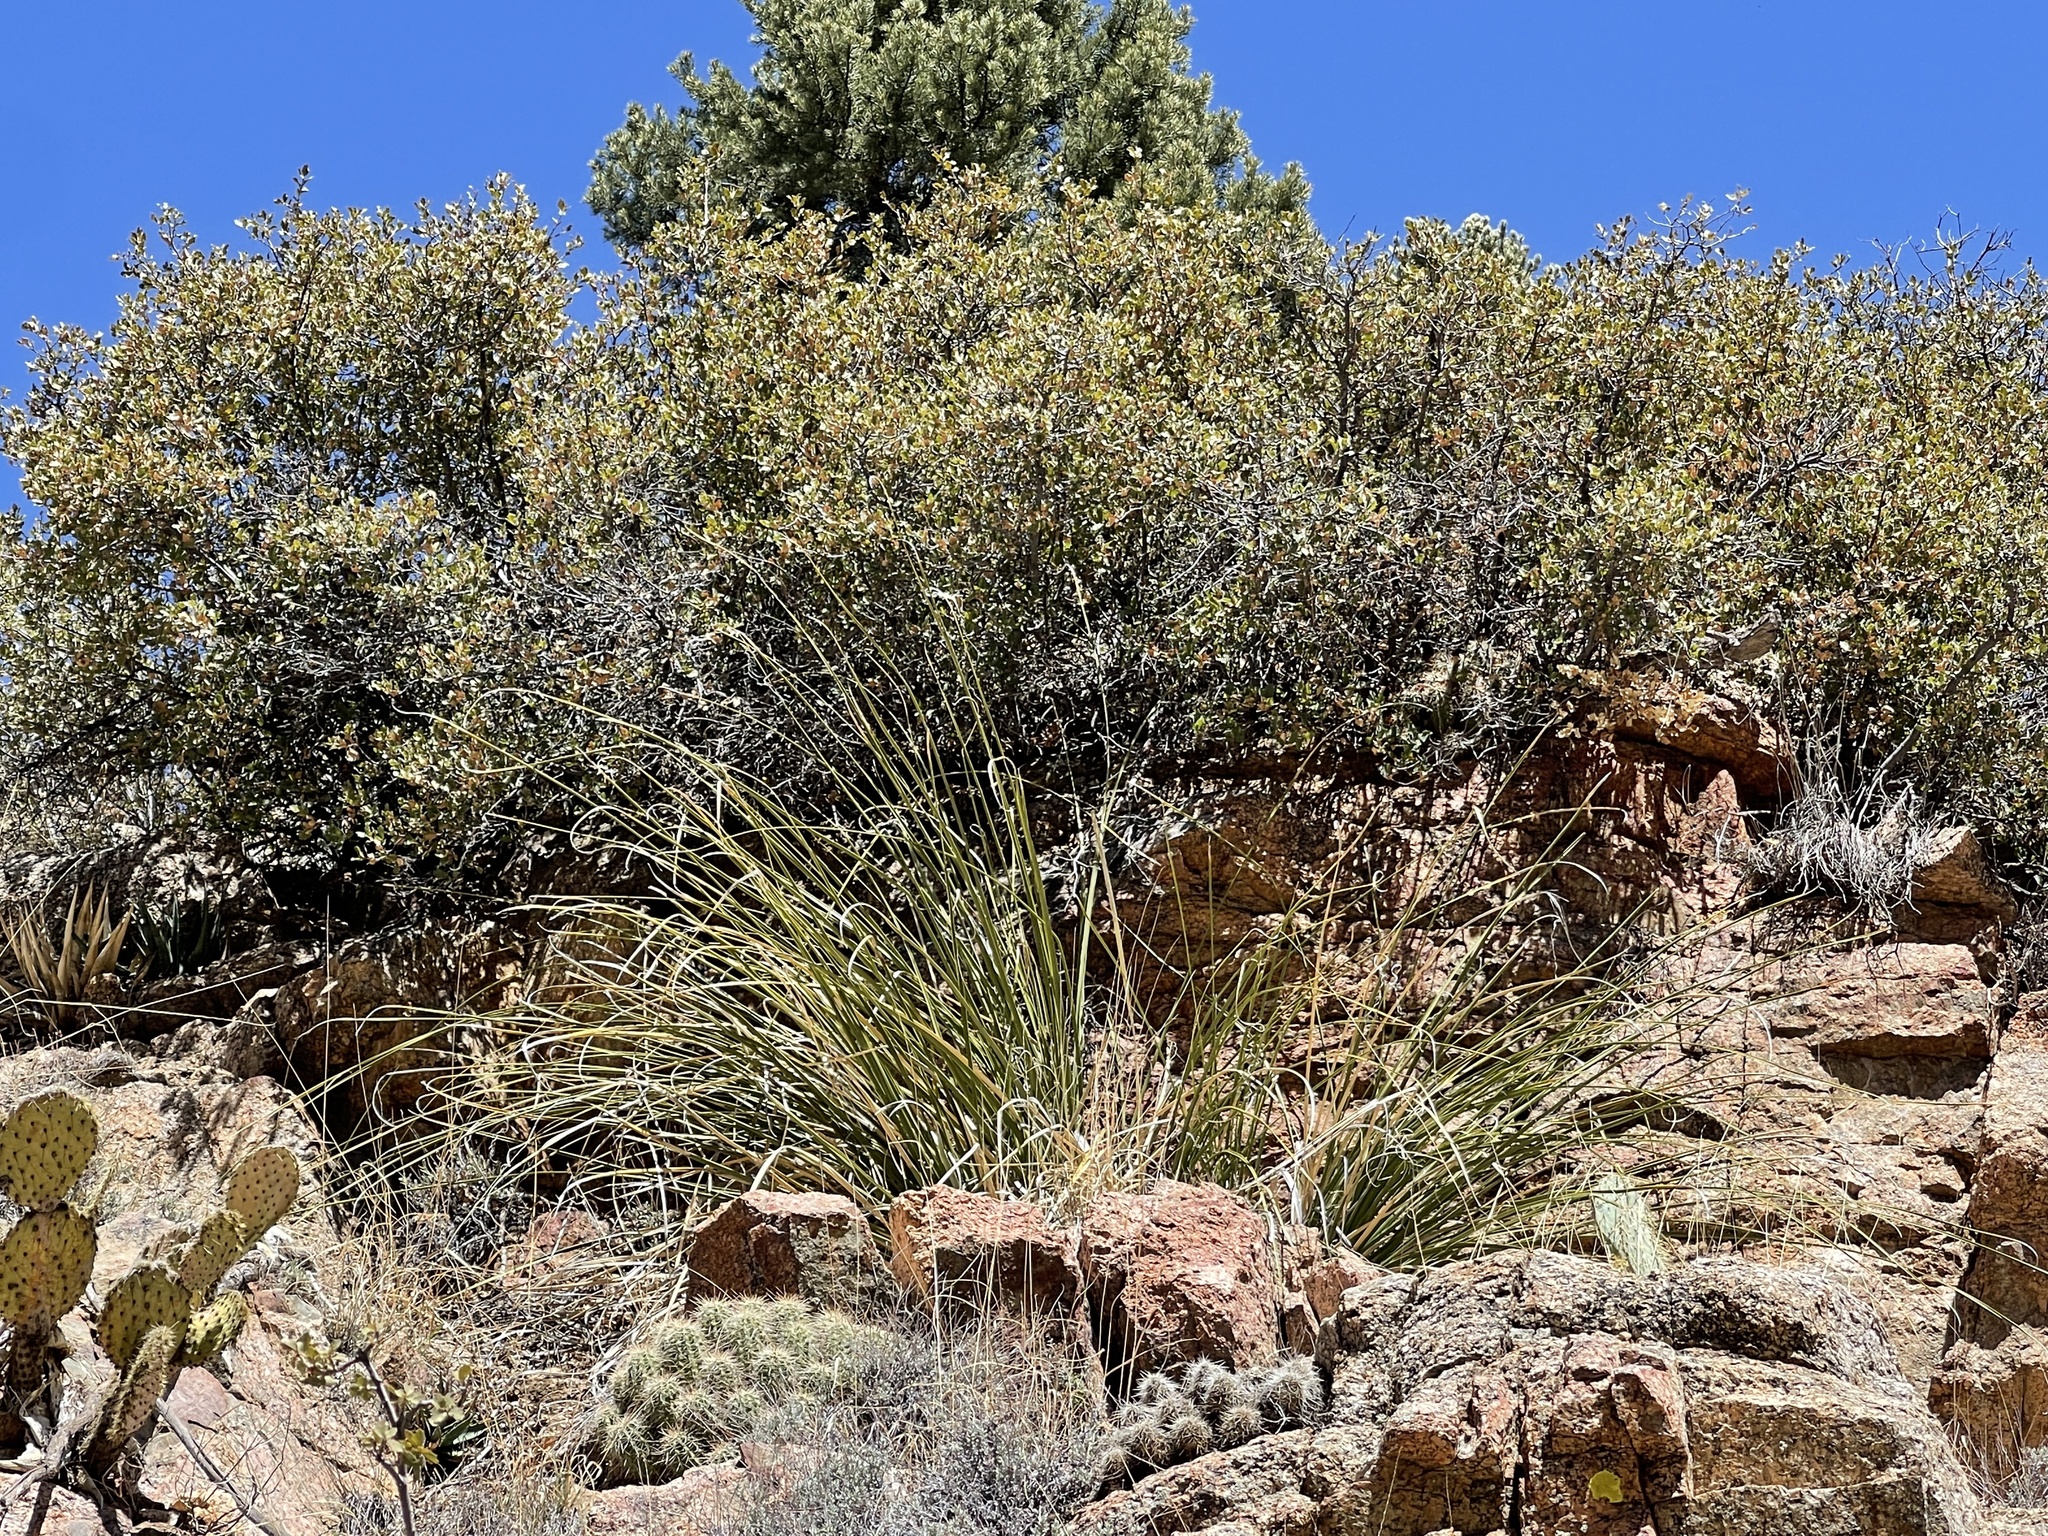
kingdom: Plantae
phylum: Tracheophyta
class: Liliopsida
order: Asparagales
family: Asparagaceae
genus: Nolina
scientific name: Nolina microcarpa
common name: Bear-grass
